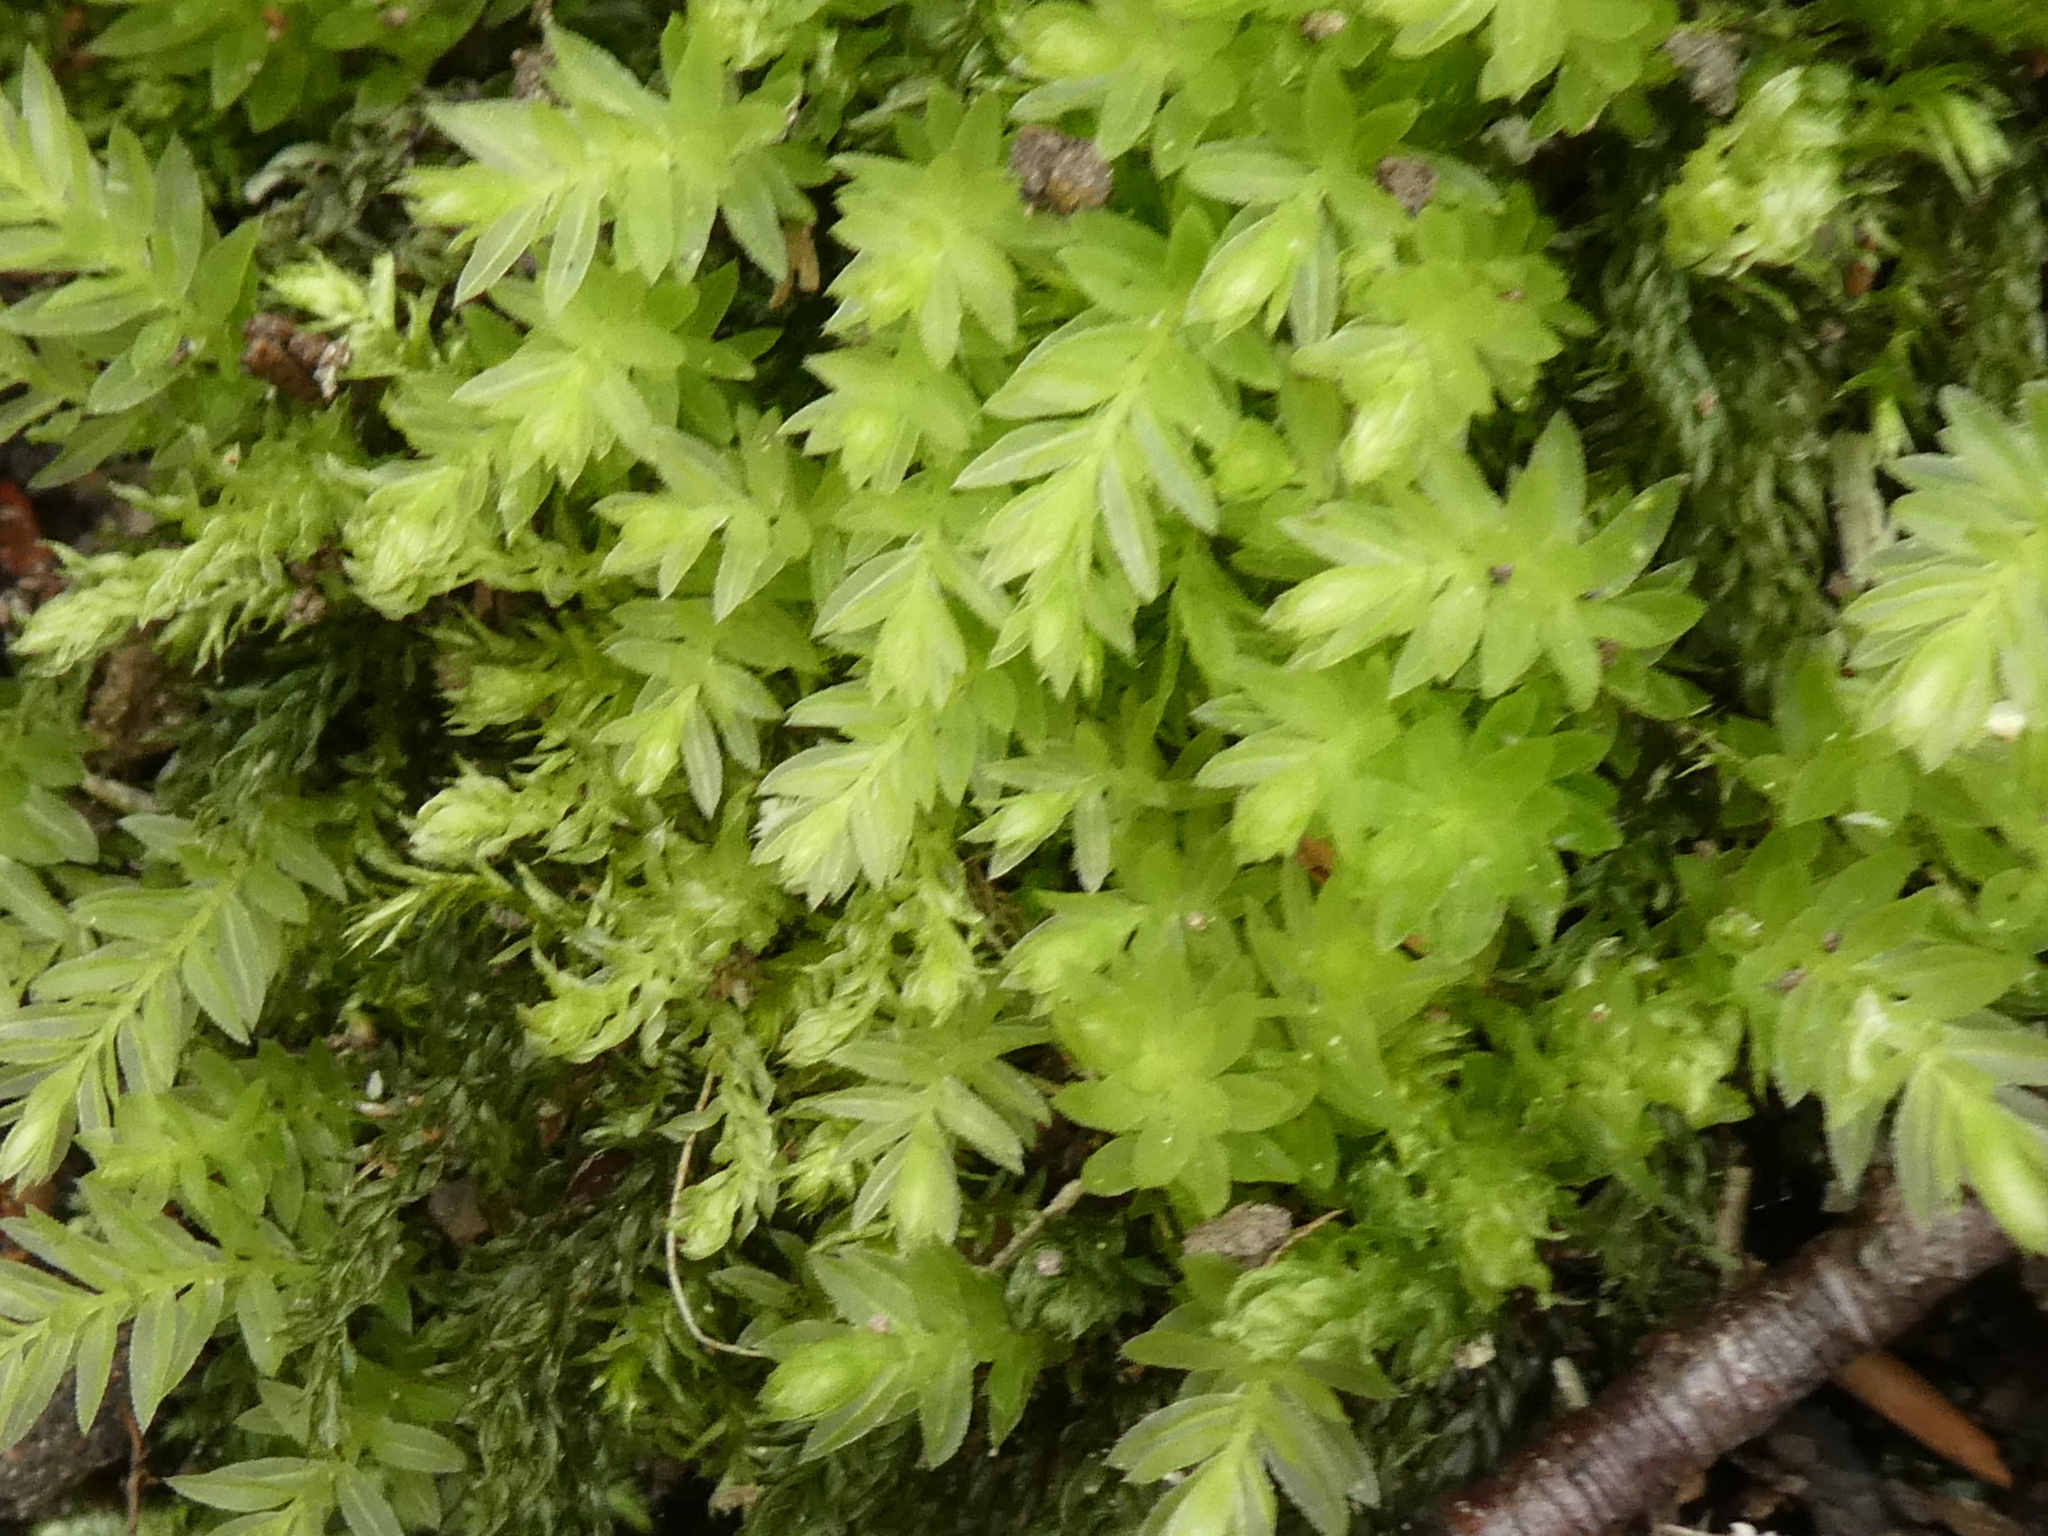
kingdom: Plantae
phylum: Bryophyta
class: Bryopsida
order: Bryales
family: Mniaceae
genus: Mnium
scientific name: Mnium hornum
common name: Swan's-neck leafy moss
